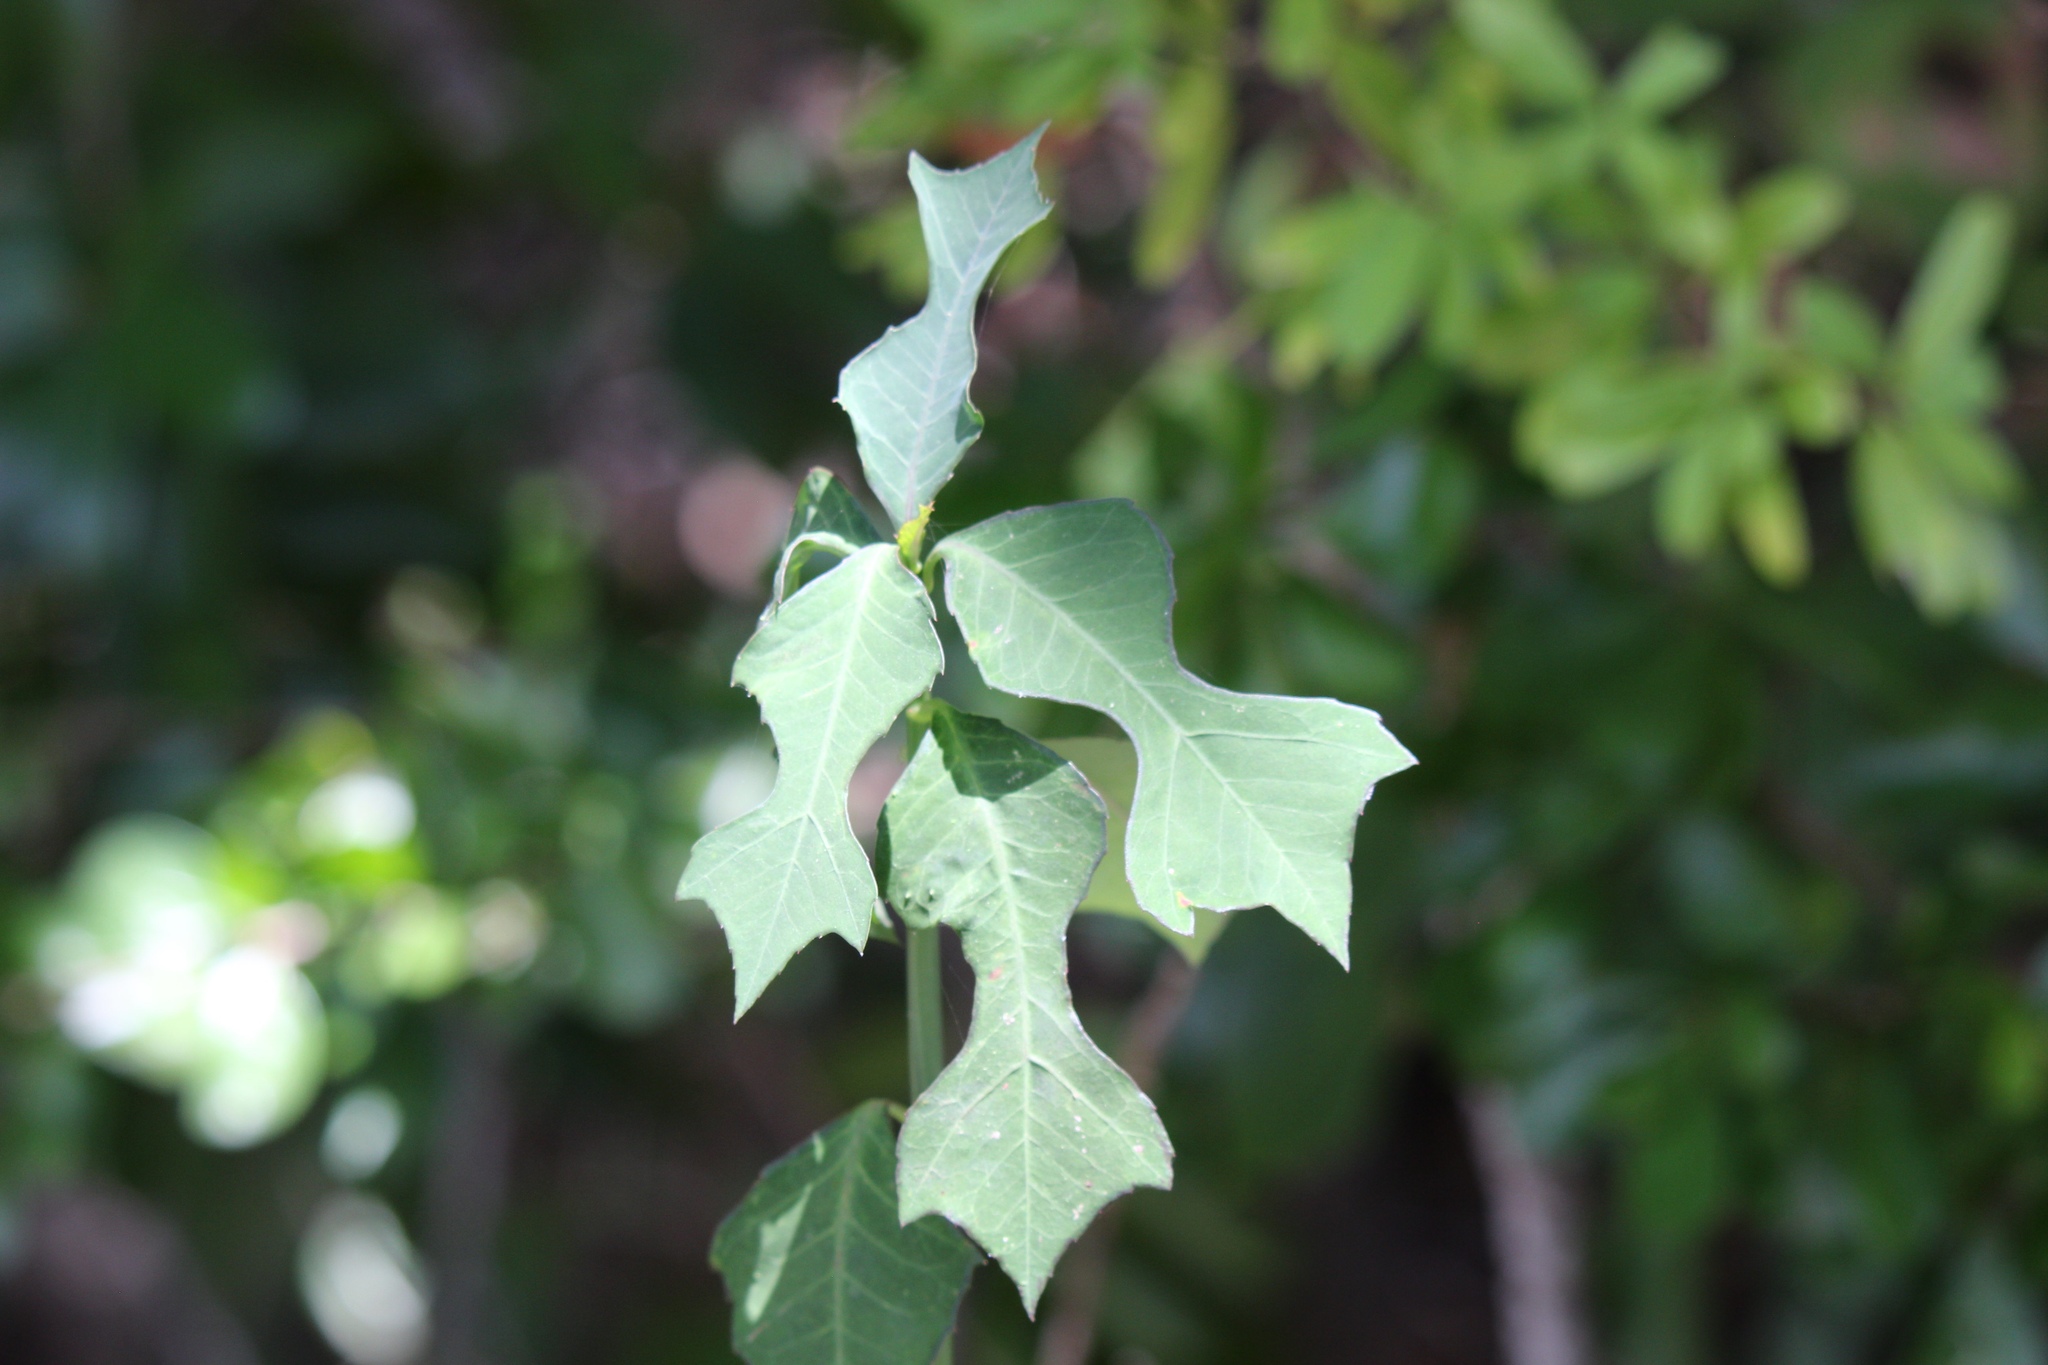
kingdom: Plantae
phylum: Tracheophyta
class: Magnoliopsida
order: Malpighiales
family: Euphorbiaceae
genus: Euphorbia
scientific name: Euphorbia heterophylla
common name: Mexican fireplant
